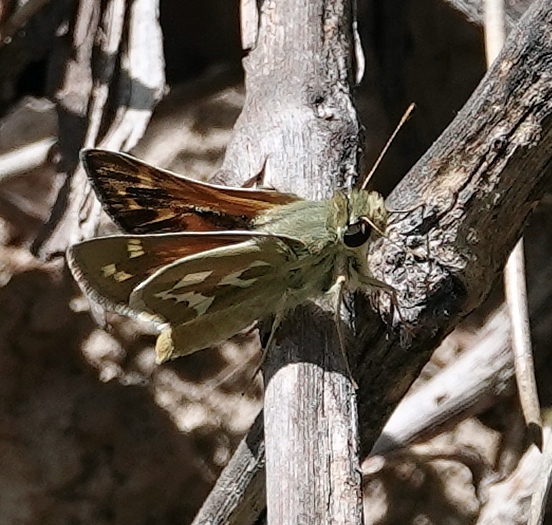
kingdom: Animalia
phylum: Arthropoda
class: Insecta
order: Lepidoptera
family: Hesperiidae
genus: Hesperia
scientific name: Hesperia comma
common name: Common branded skipper
